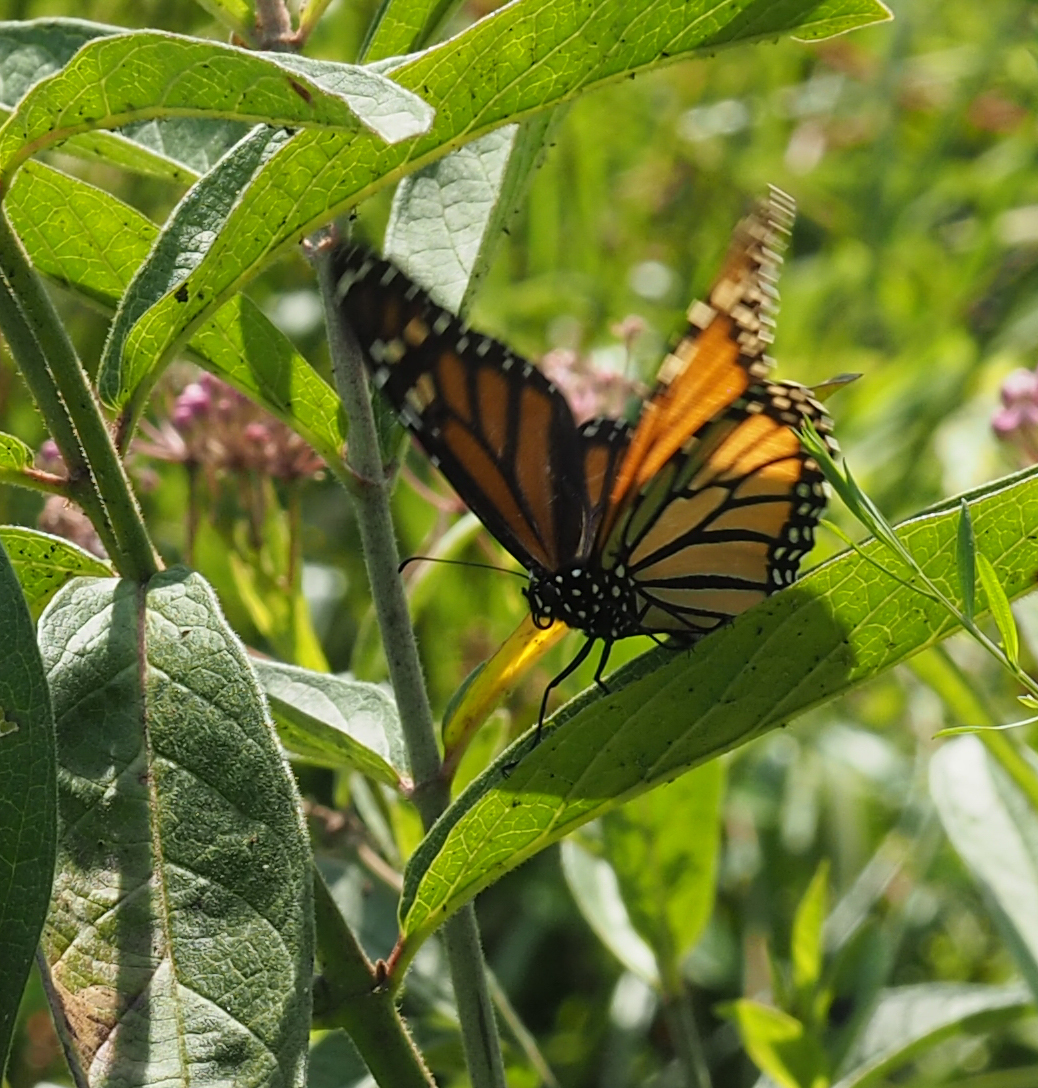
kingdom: Animalia
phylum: Arthropoda
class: Insecta
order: Lepidoptera
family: Nymphalidae
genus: Danaus
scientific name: Danaus plexippus
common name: Monarch
